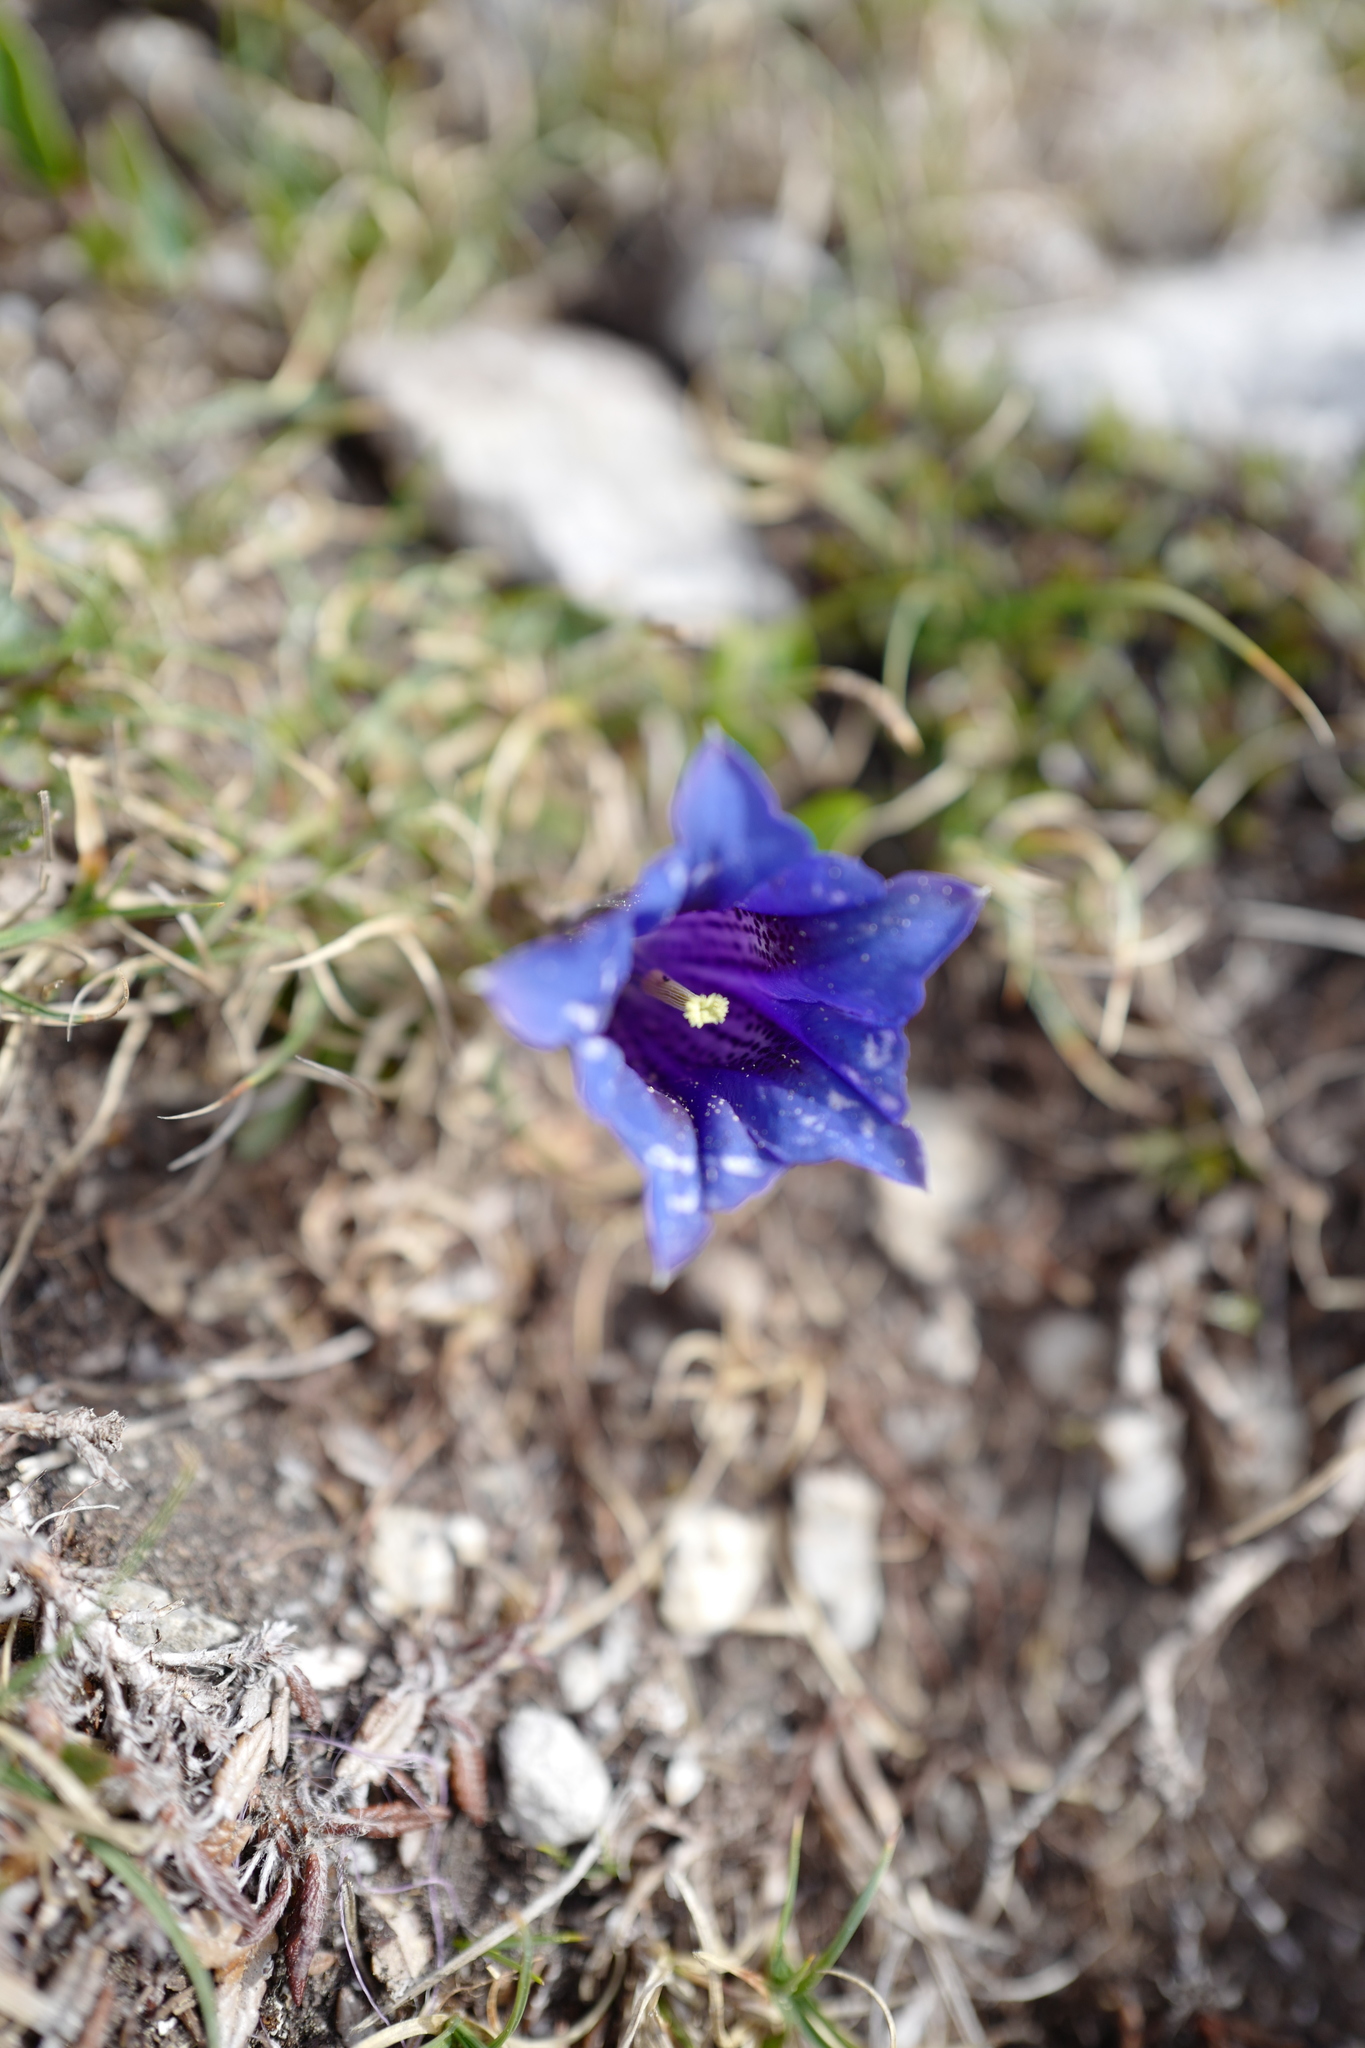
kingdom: Plantae
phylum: Tracheophyta
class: Magnoliopsida
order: Gentianales
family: Gentianaceae
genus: Gentiana
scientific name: Gentiana clusii
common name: Trumpet gentian
